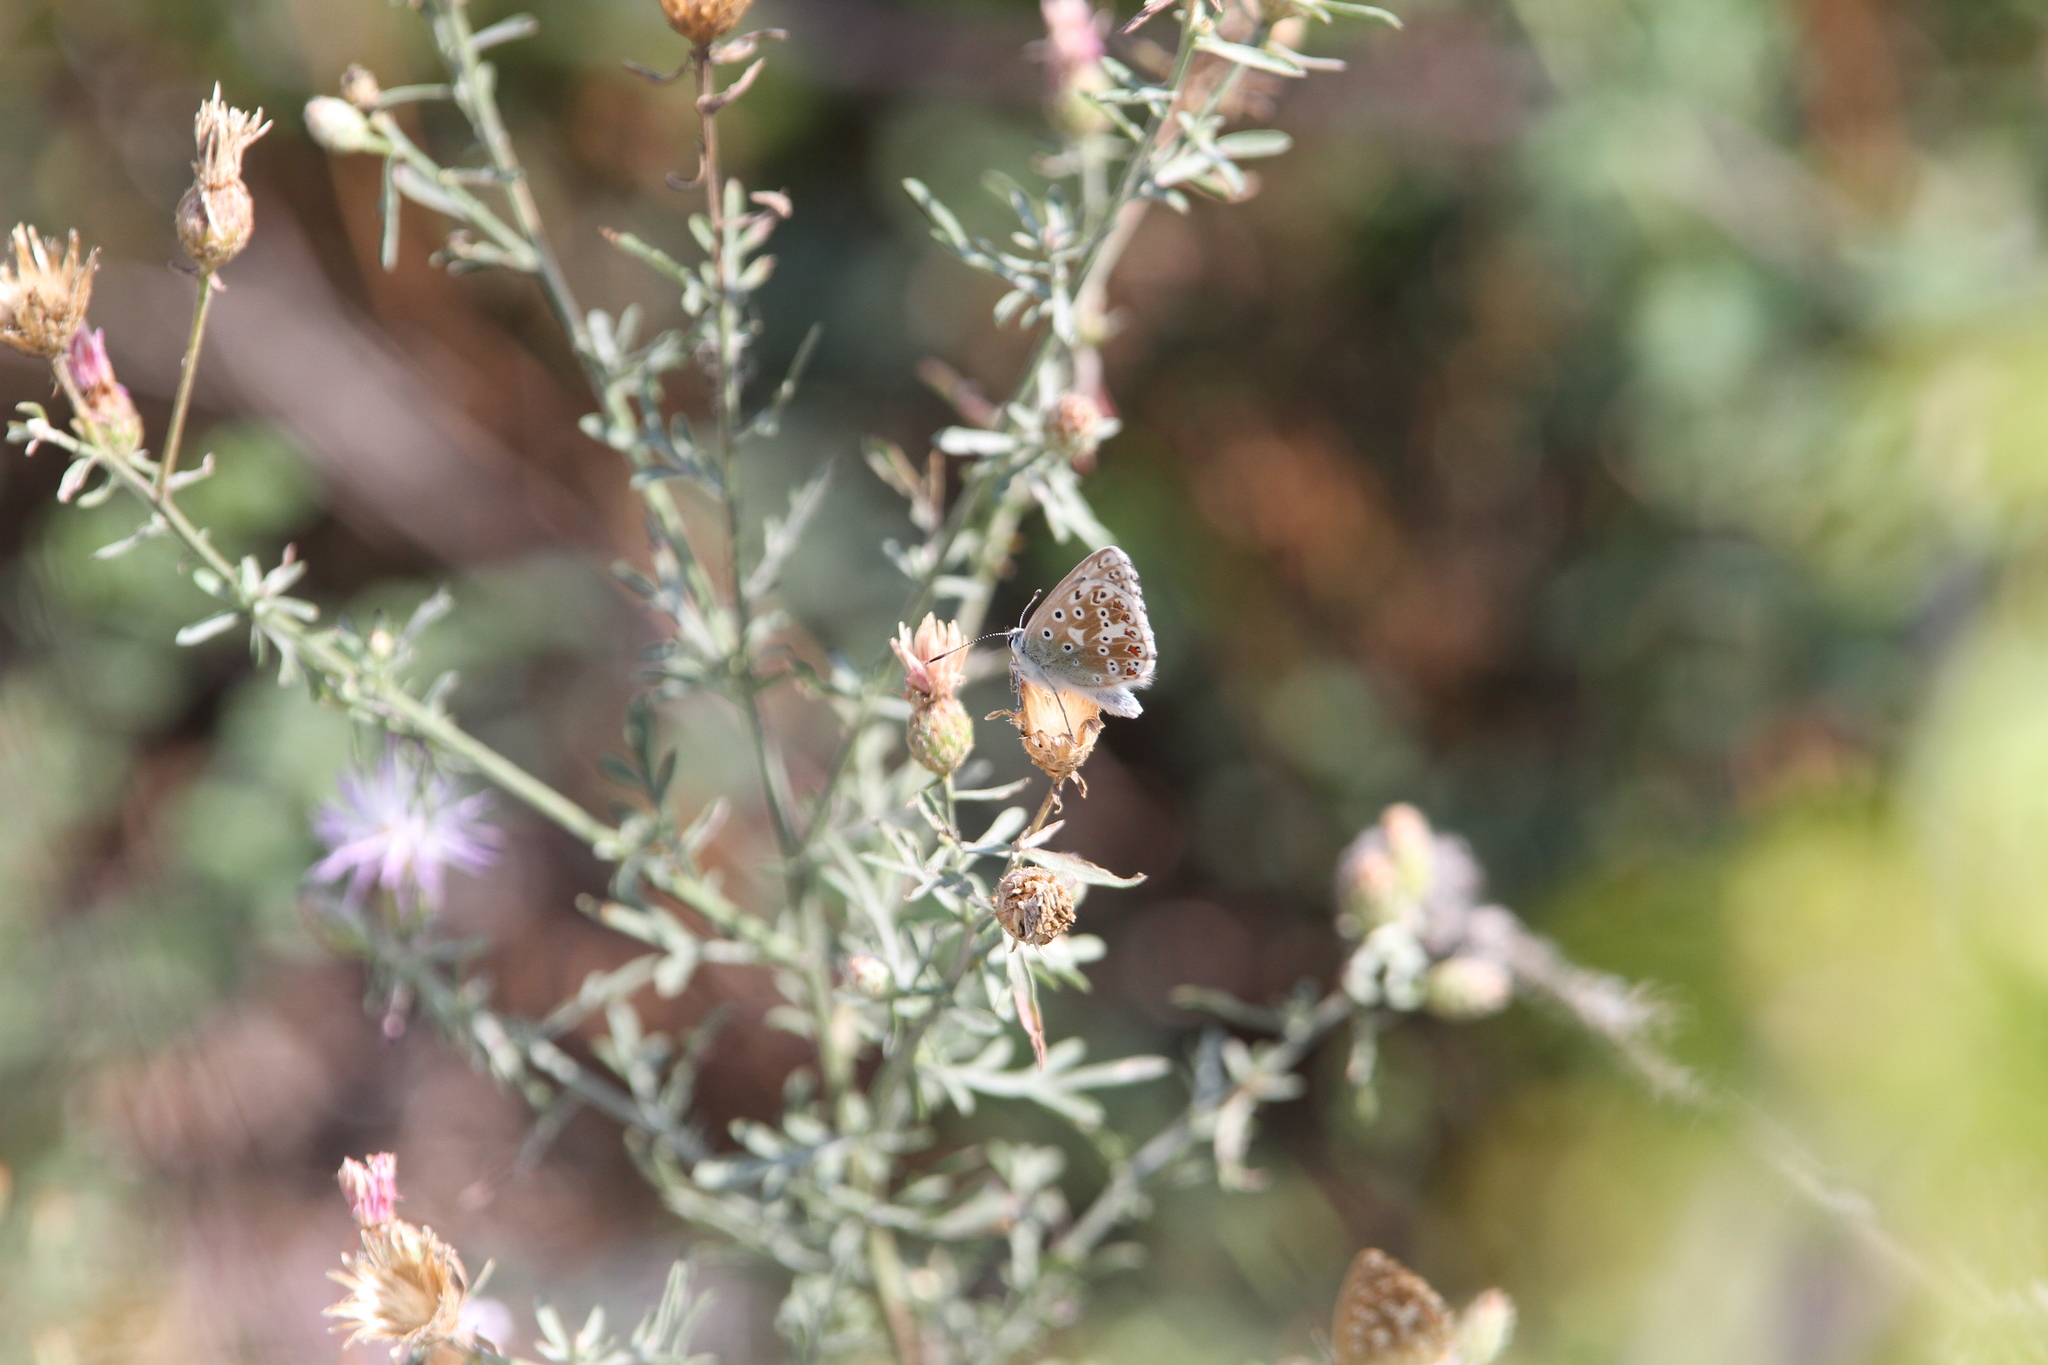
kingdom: Animalia
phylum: Arthropoda
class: Insecta
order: Lepidoptera
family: Lycaenidae
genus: Lysandra
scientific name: Lysandra coridon
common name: Chalkhill blue
